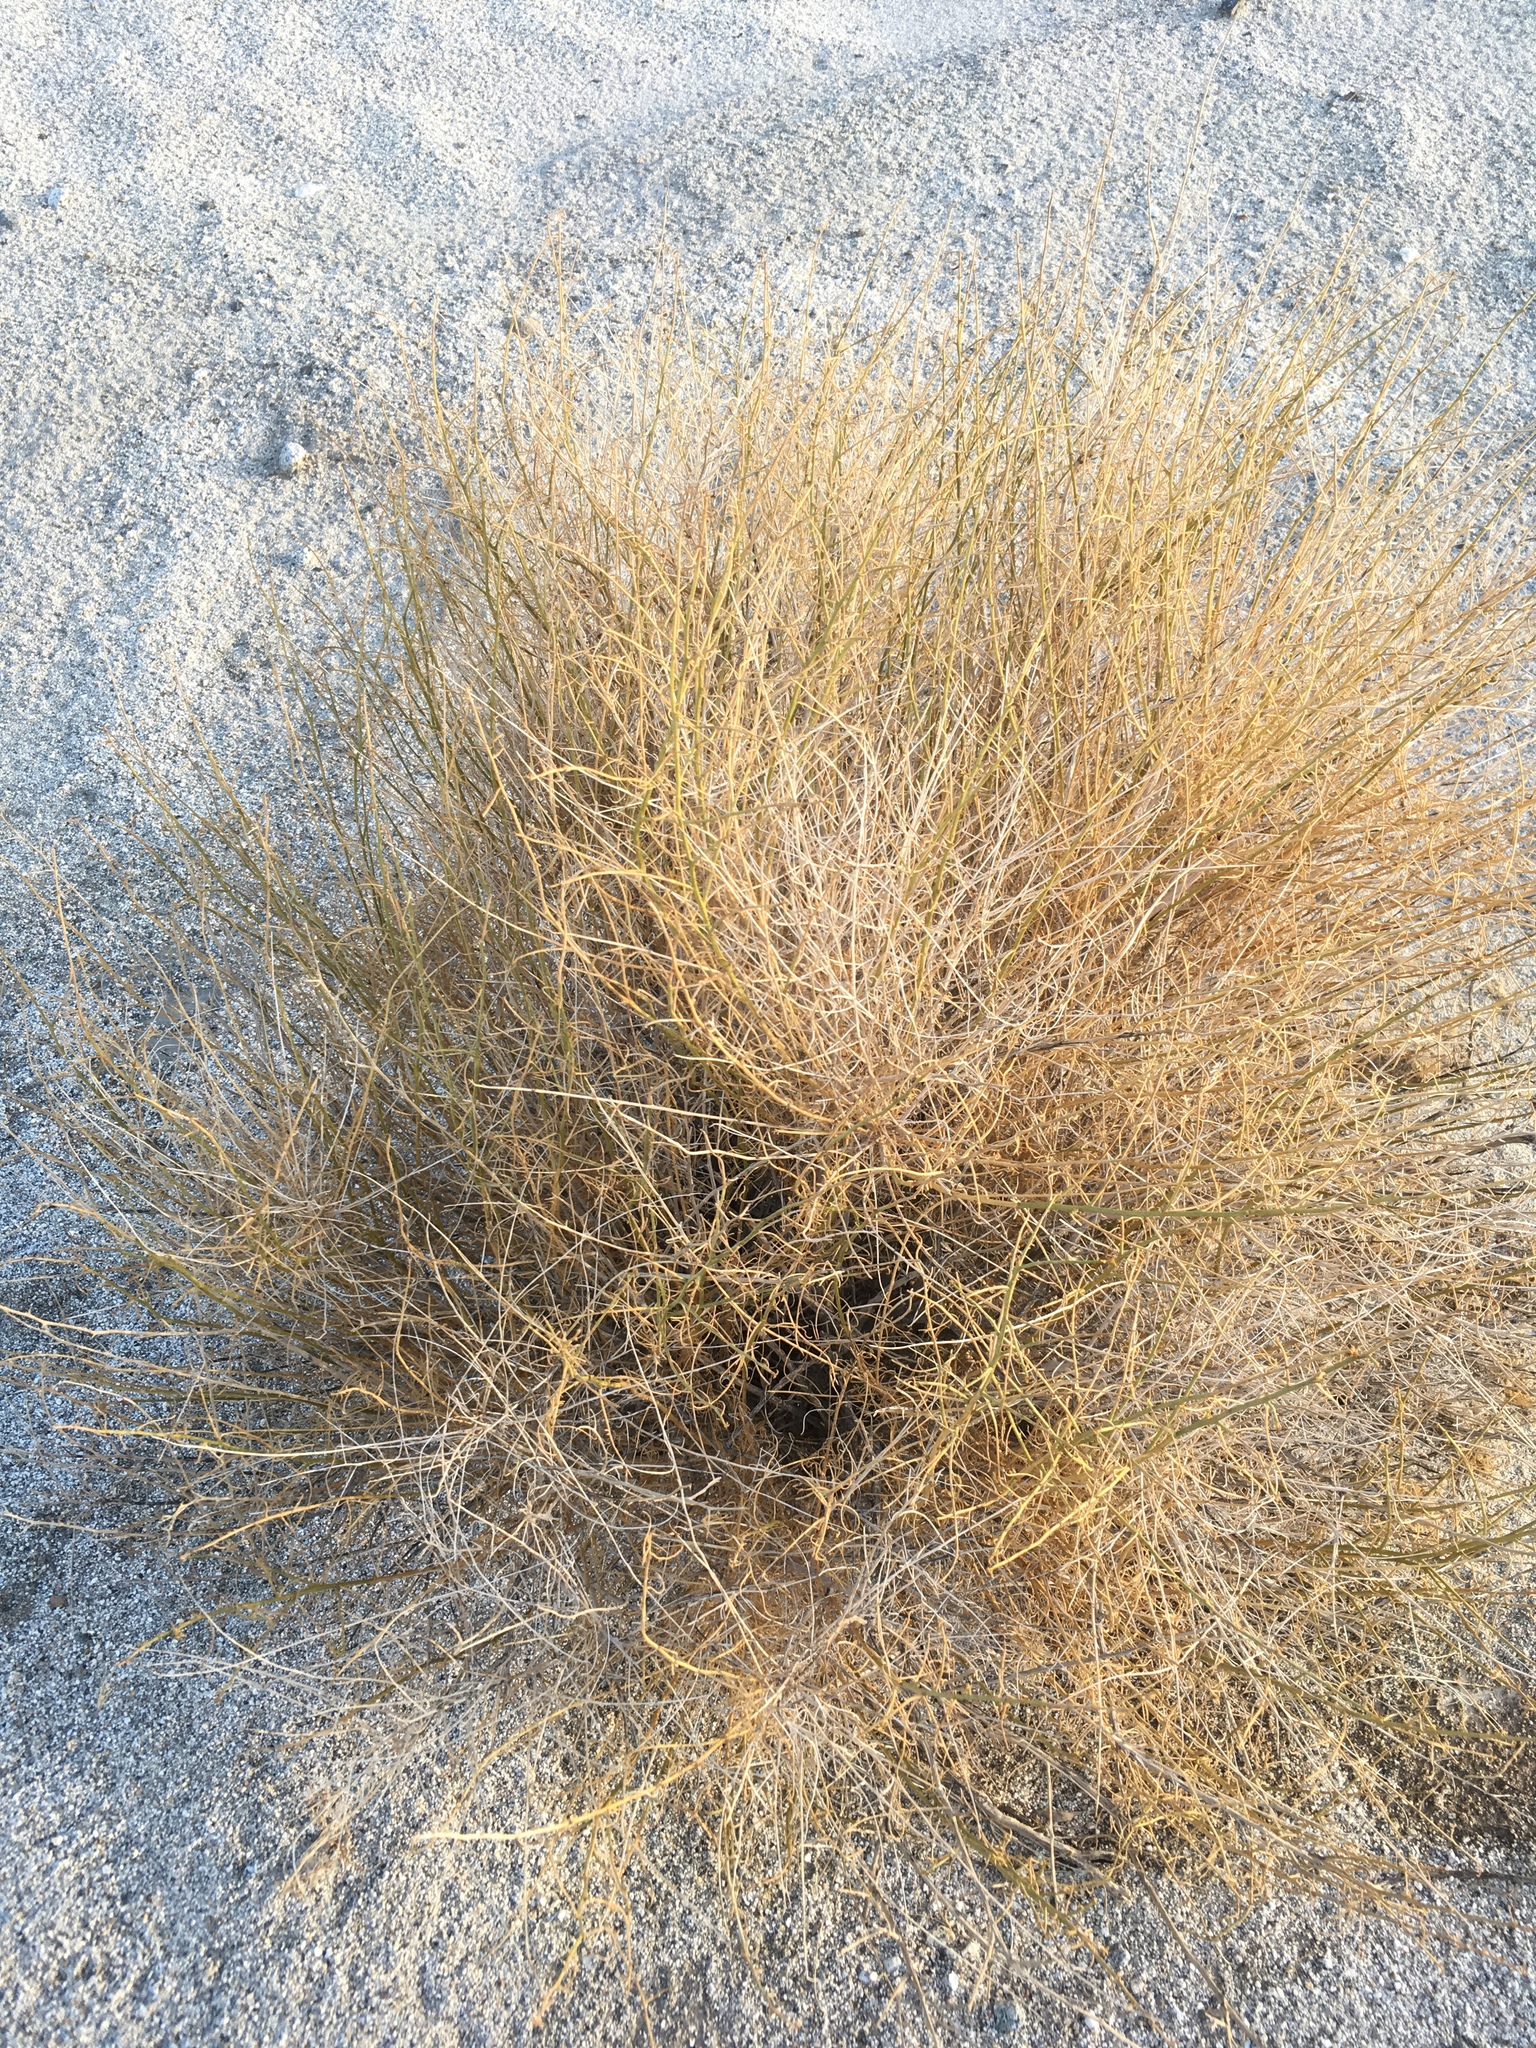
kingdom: Plantae
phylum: Tracheophyta
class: Magnoliopsida
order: Asterales
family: Asteraceae
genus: Ambrosia
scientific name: Ambrosia salsola
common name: Burrobrush
